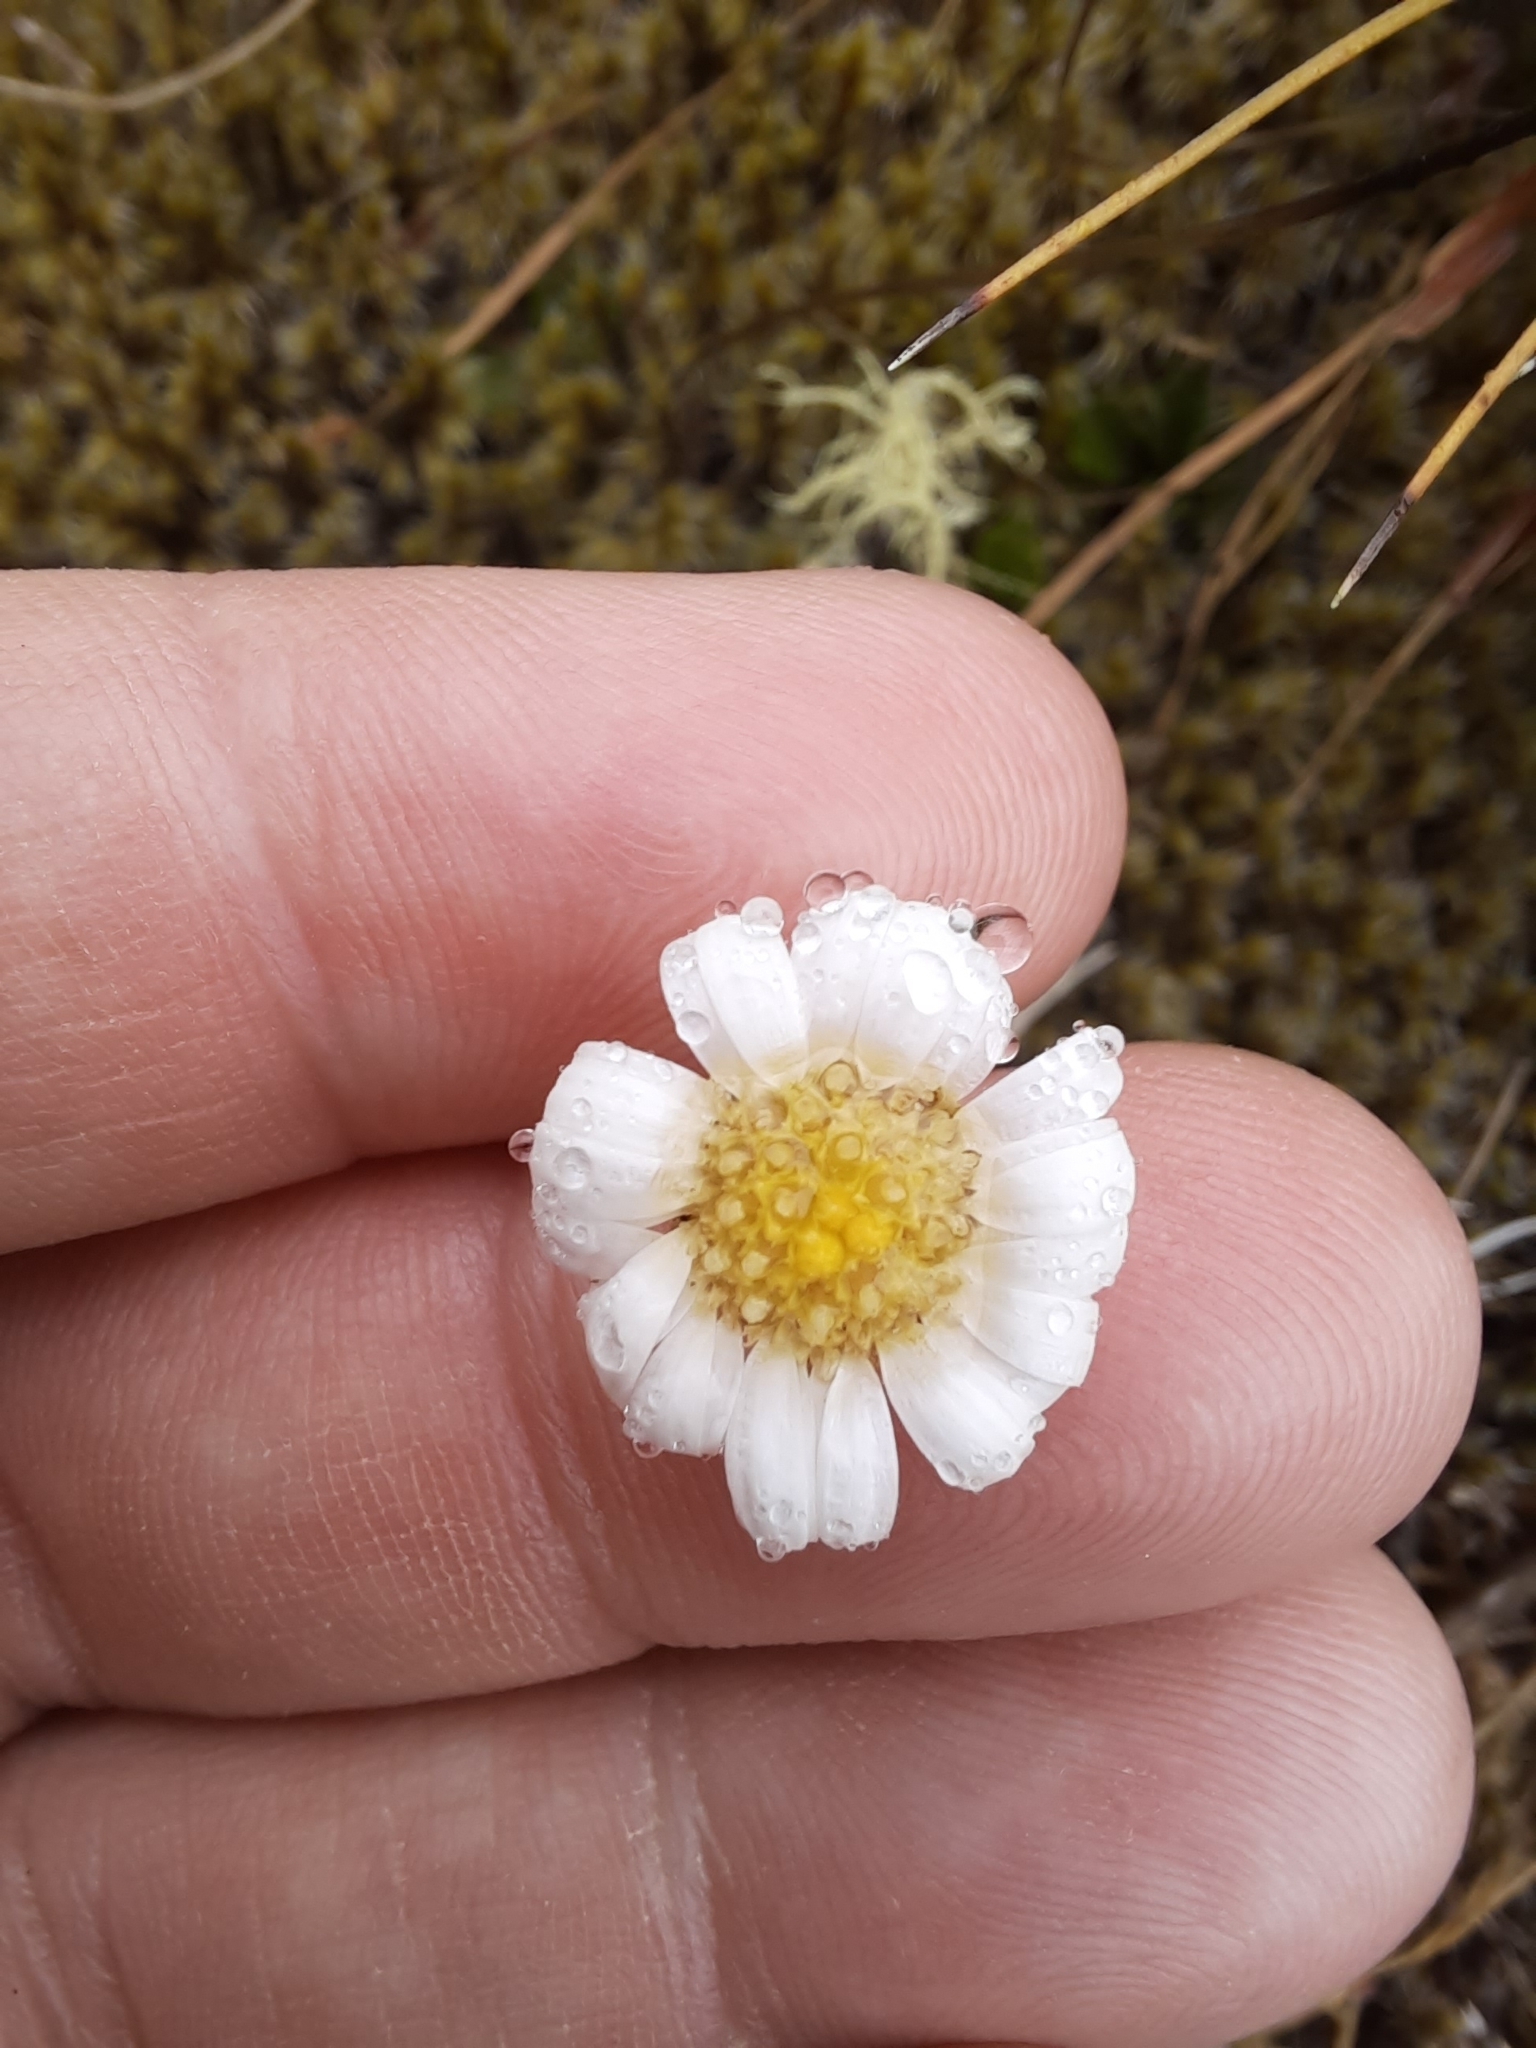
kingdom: Plantae
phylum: Tracheophyta
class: Magnoliopsida
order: Asterales
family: Asteraceae
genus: Brachyscome
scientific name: Brachyscome sinclairii
